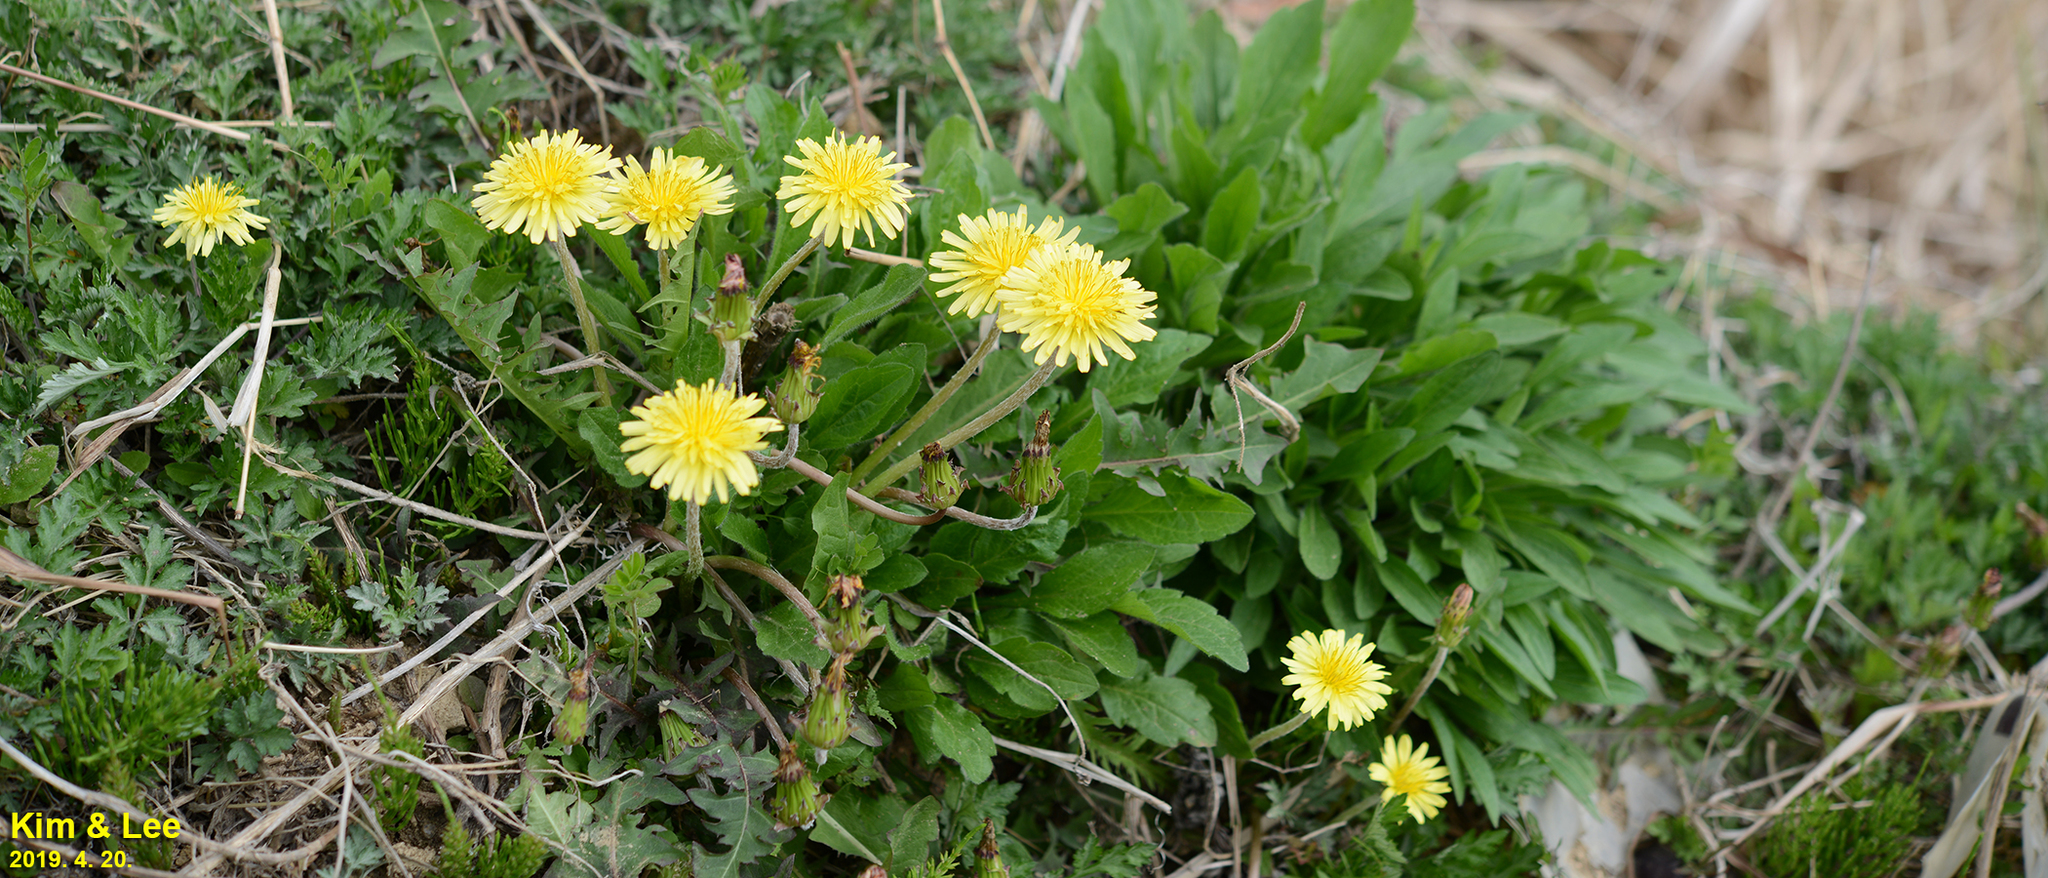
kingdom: Plantae
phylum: Tracheophyta
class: Magnoliopsida
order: Asterales
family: Asteraceae
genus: Taraxacum
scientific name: Taraxacum coreanum
